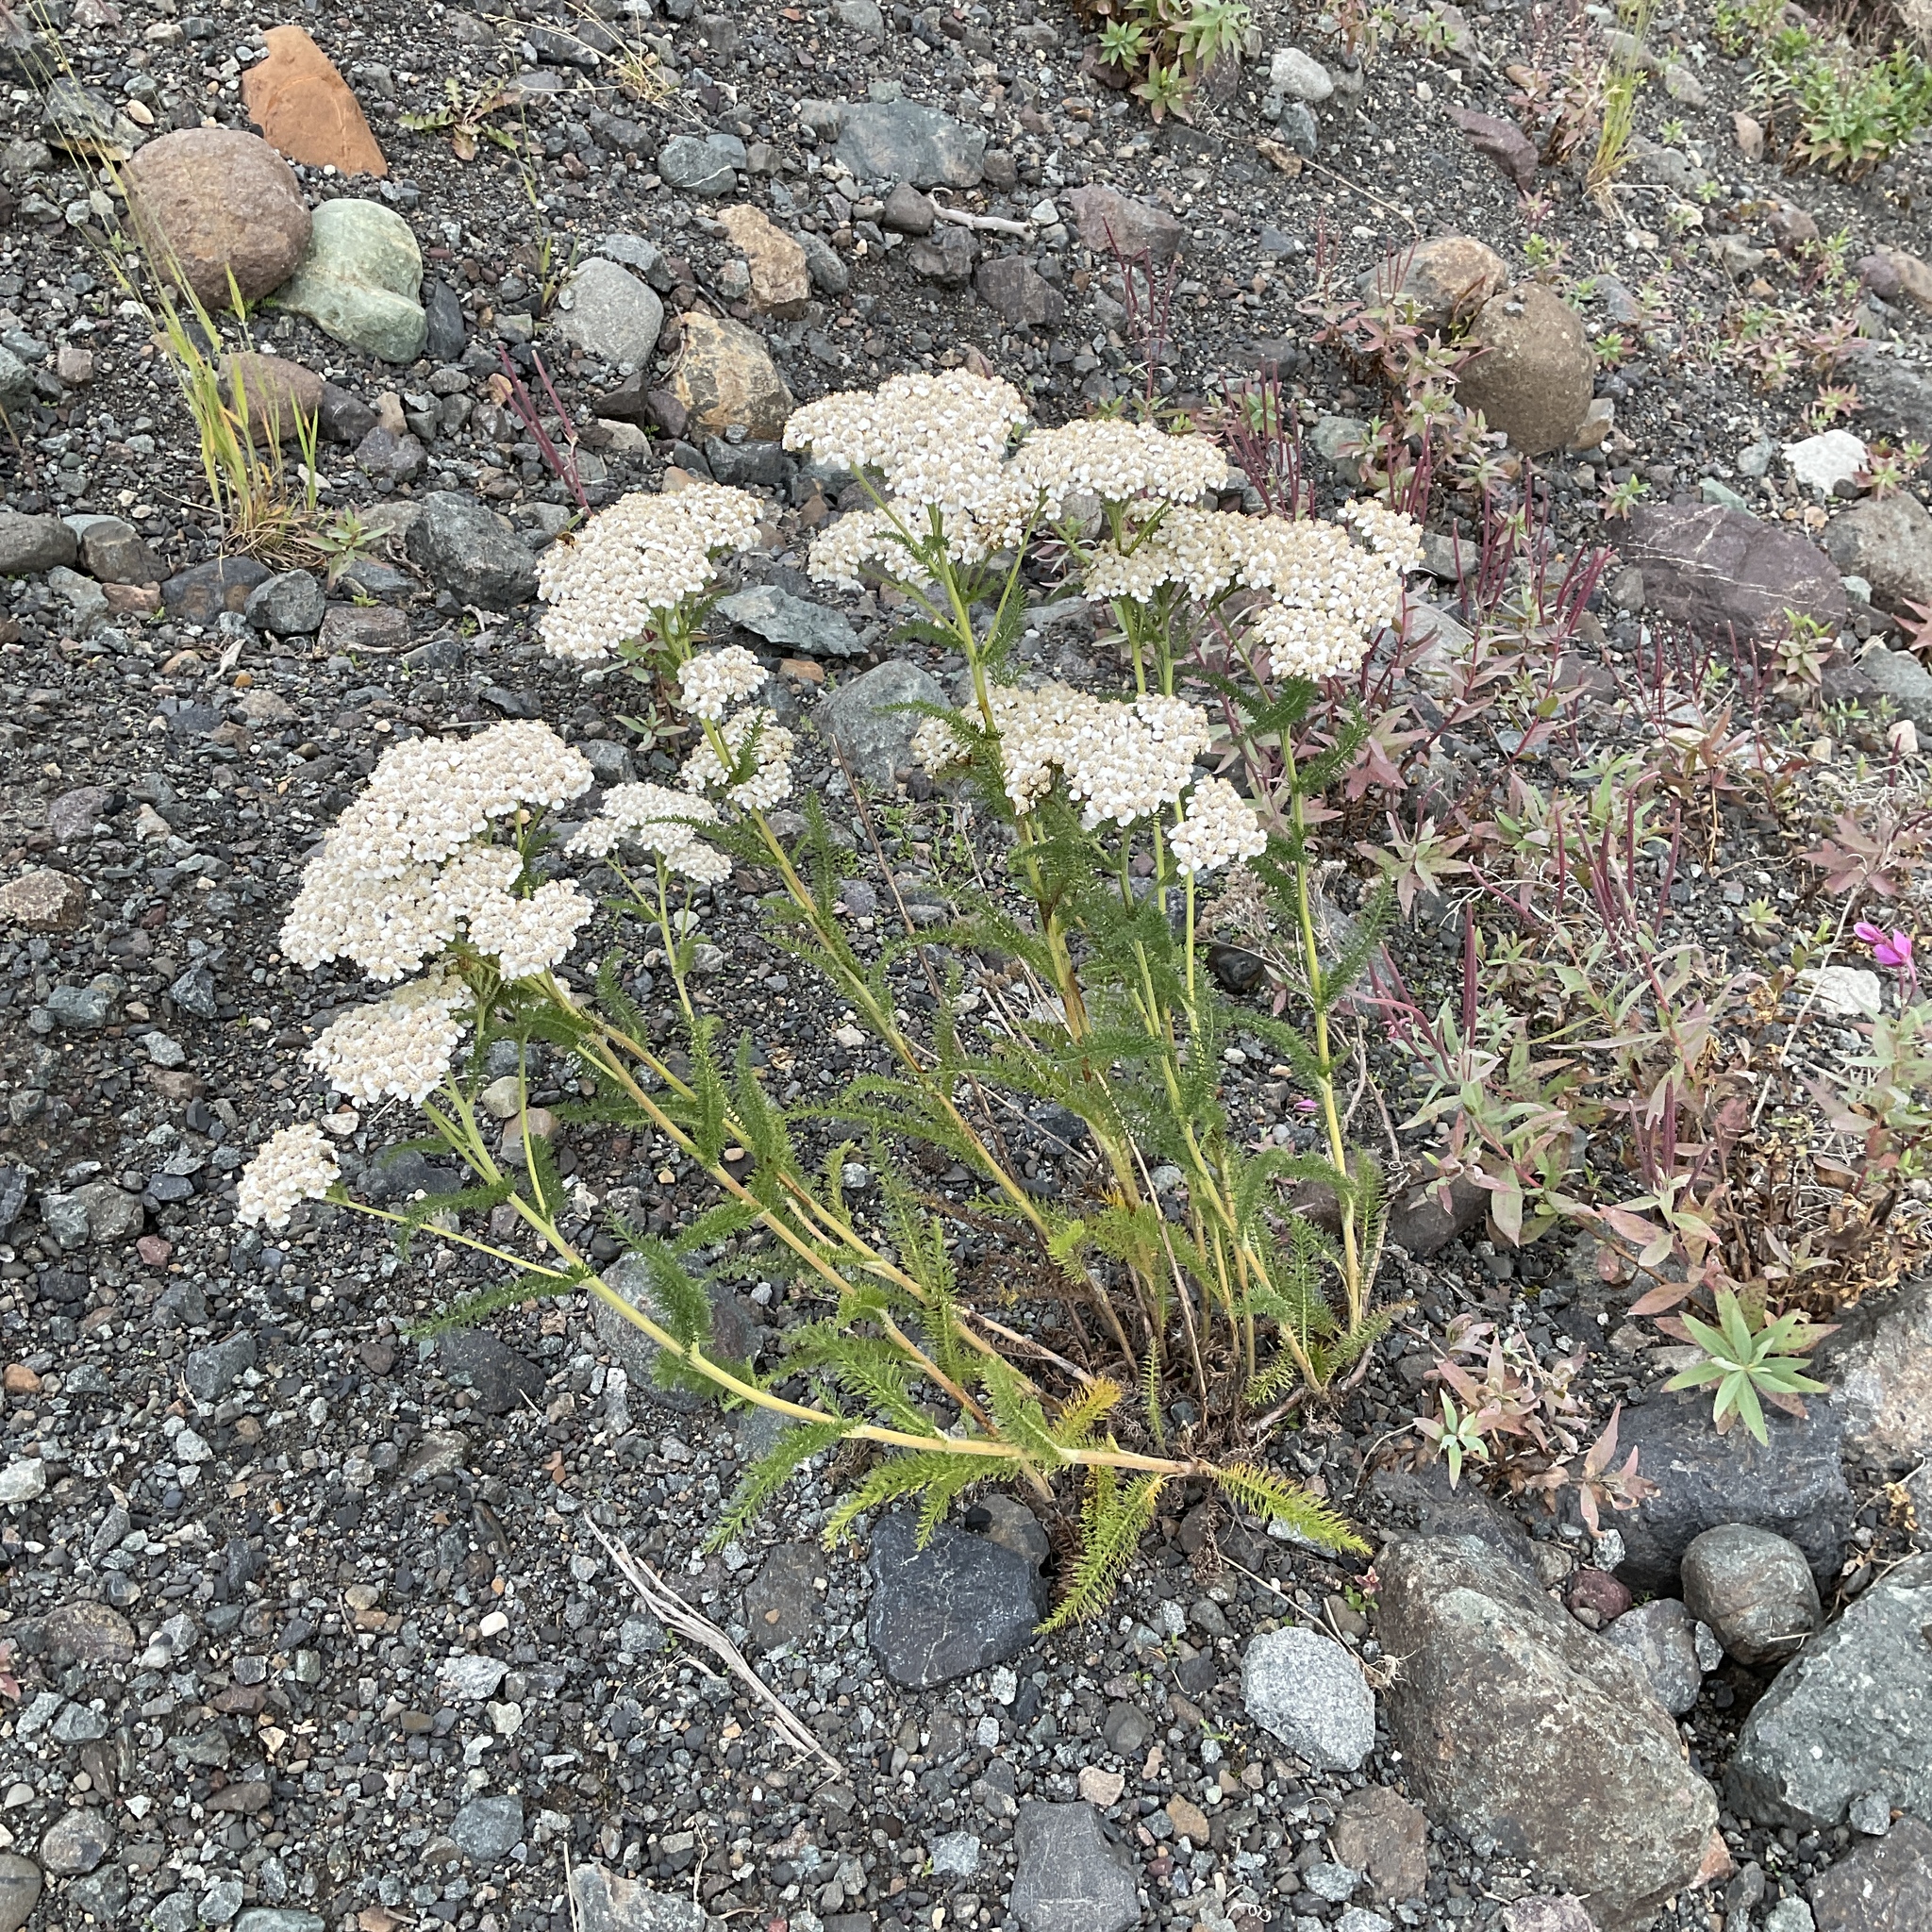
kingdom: Plantae
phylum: Tracheophyta
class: Magnoliopsida
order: Asterales
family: Asteraceae
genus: Achillea
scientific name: Achillea millefolium
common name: Yarrow
